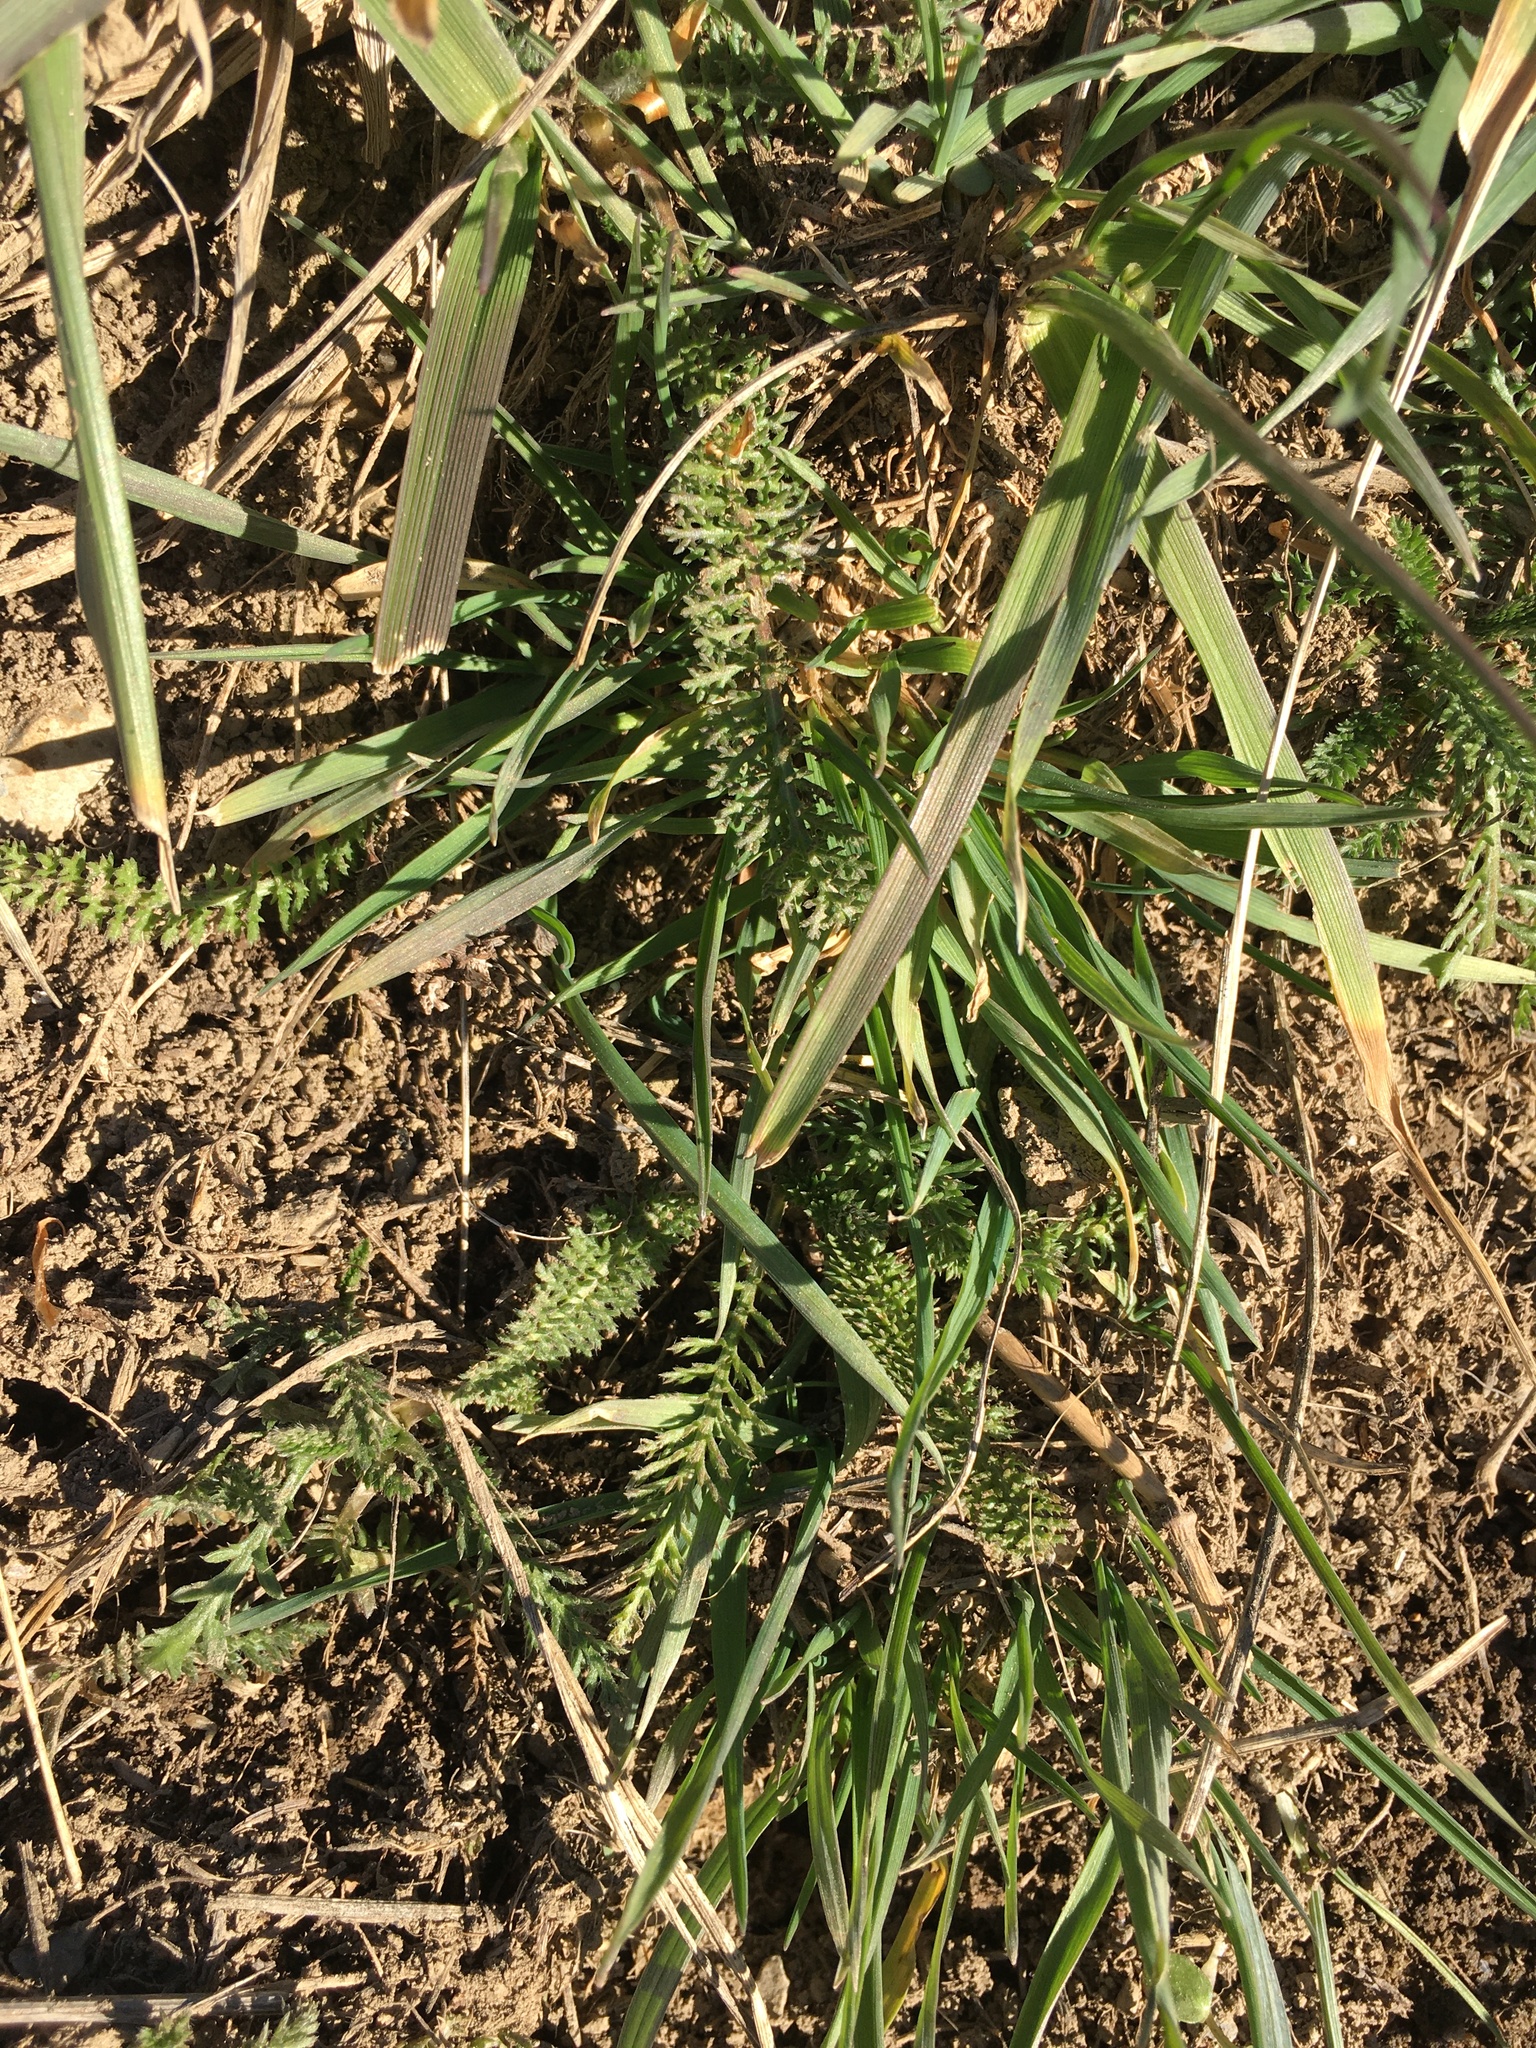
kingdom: Plantae
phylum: Tracheophyta
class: Magnoliopsida
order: Asterales
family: Asteraceae
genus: Achillea
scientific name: Achillea millefolium
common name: Yarrow
